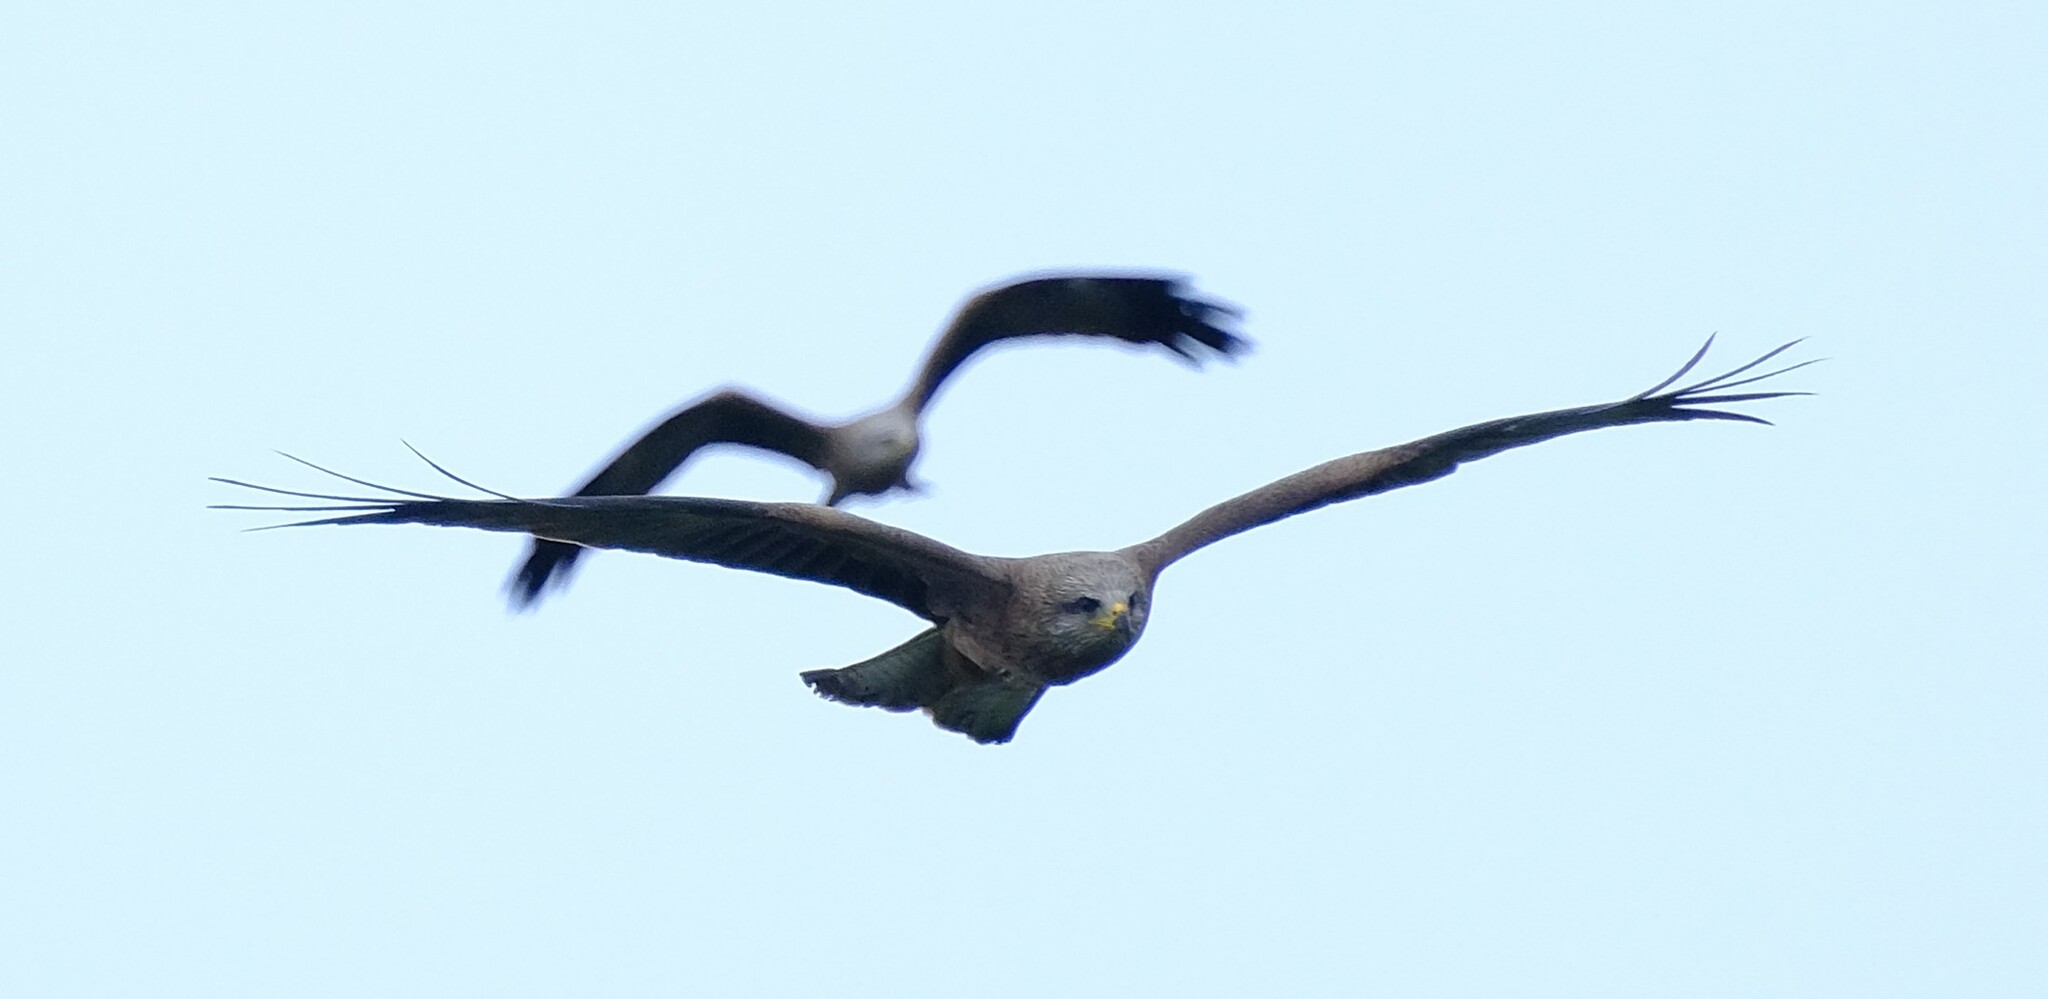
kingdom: Animalia
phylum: Chordata
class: Aves
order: Accipitriformes
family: Accipitridae
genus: Milvus
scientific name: Milvus migrans
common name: Black kite
